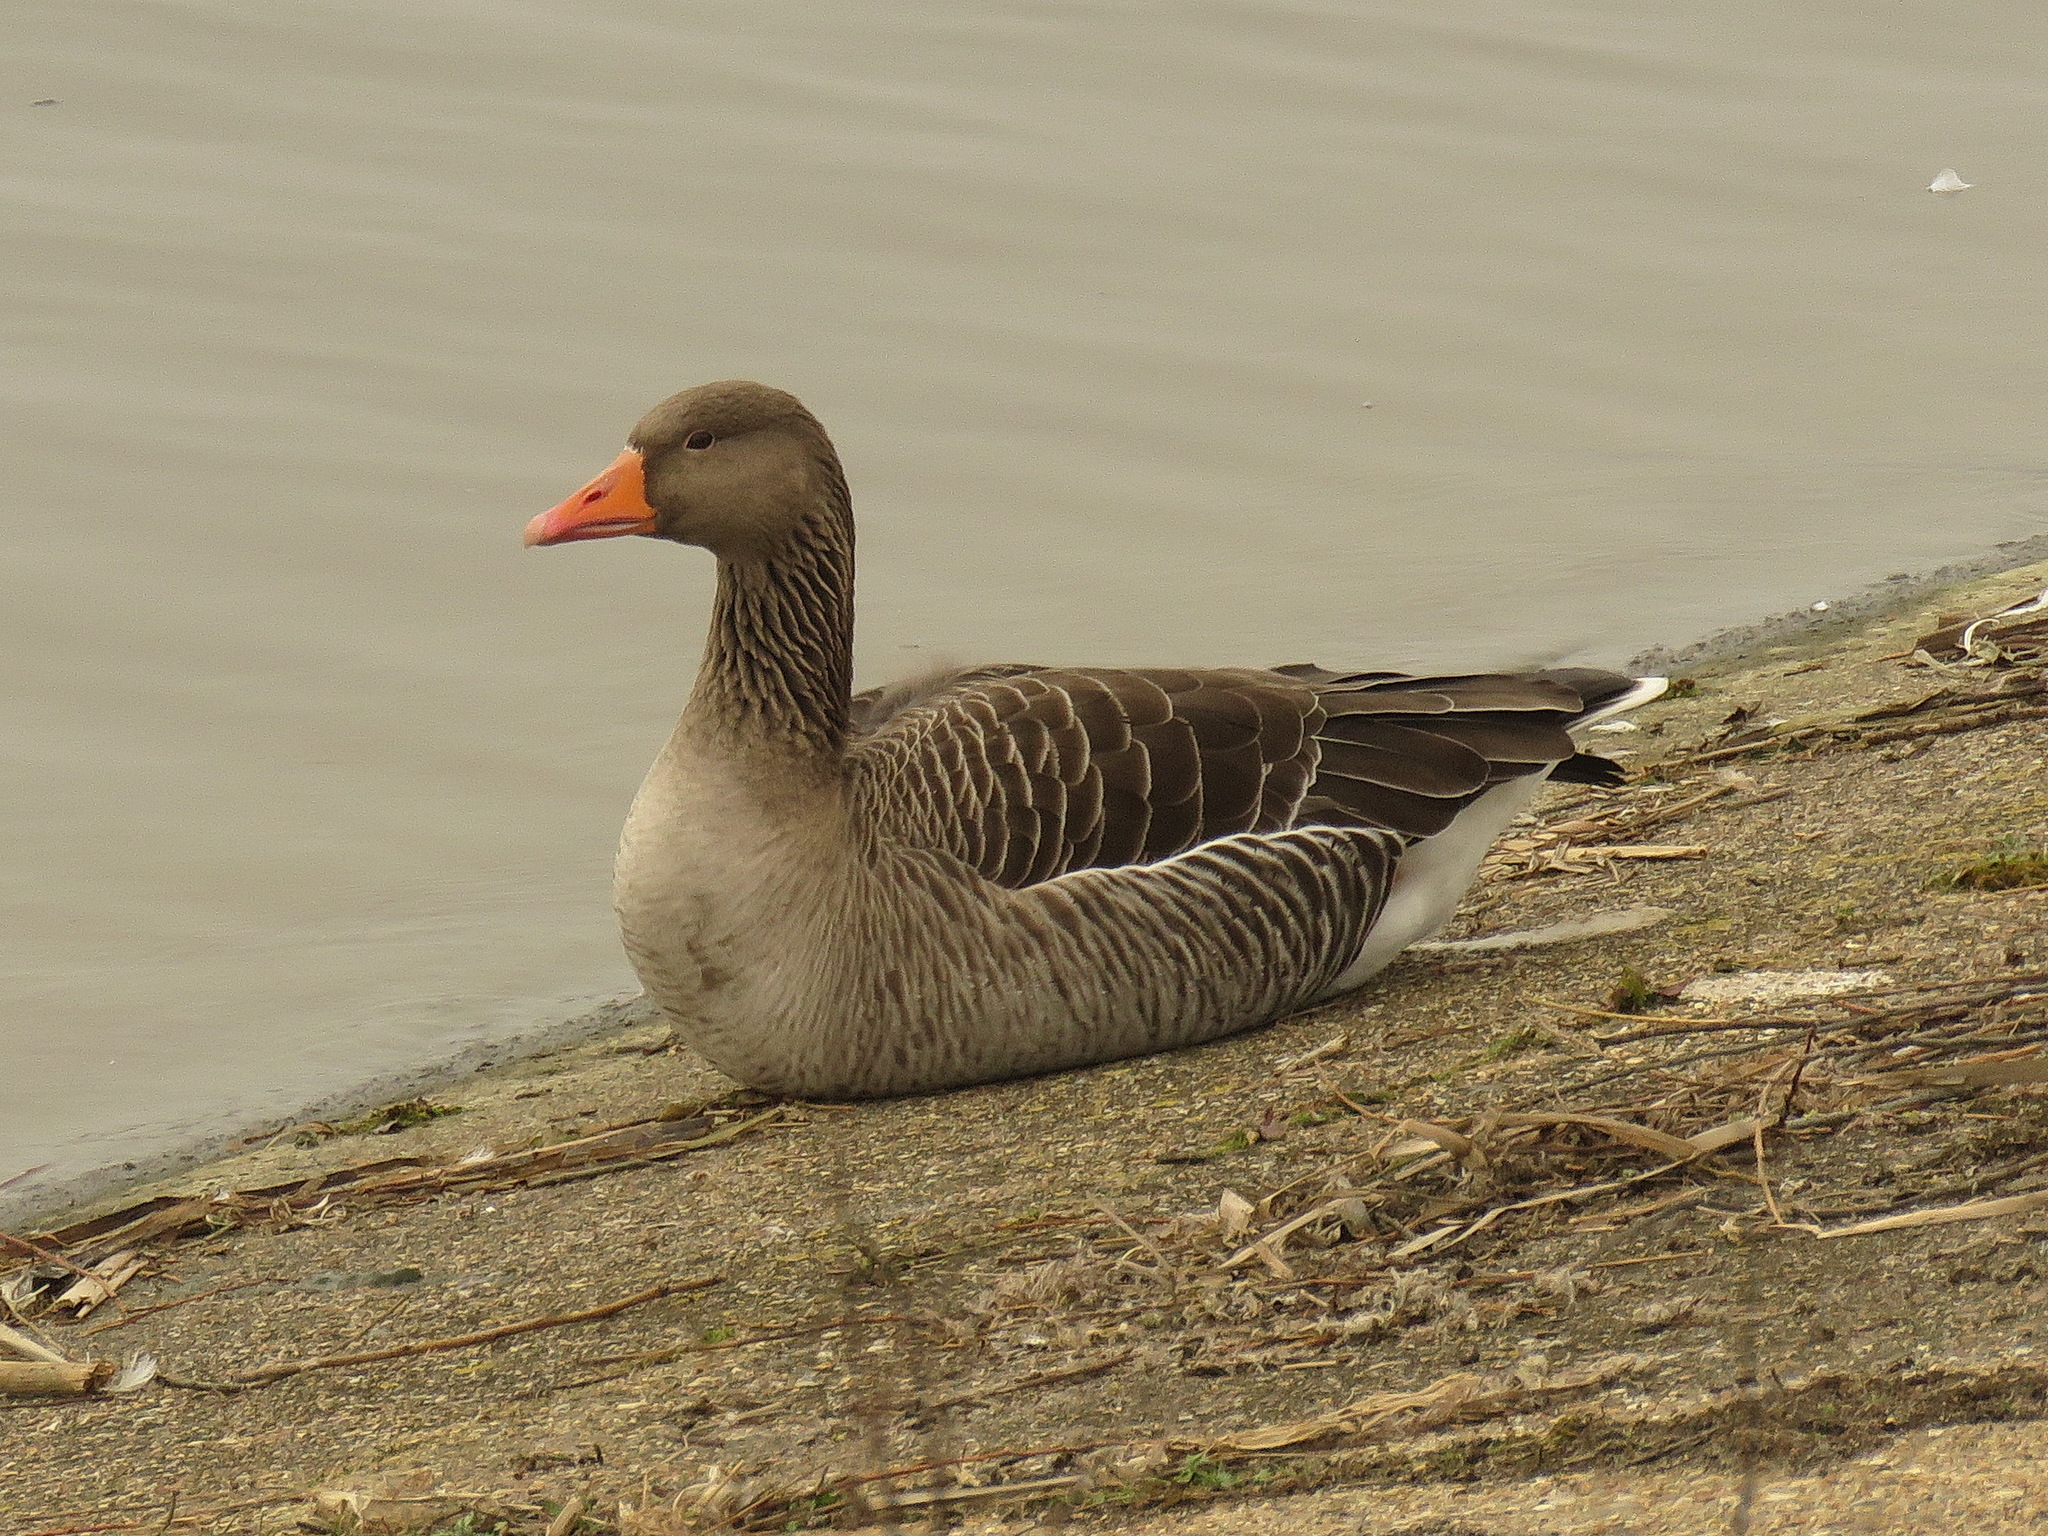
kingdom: Animalia
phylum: Chordata
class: Aves
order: Anseriformes
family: Anatidae
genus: Anser
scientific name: Anser anser
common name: Greylag goose
